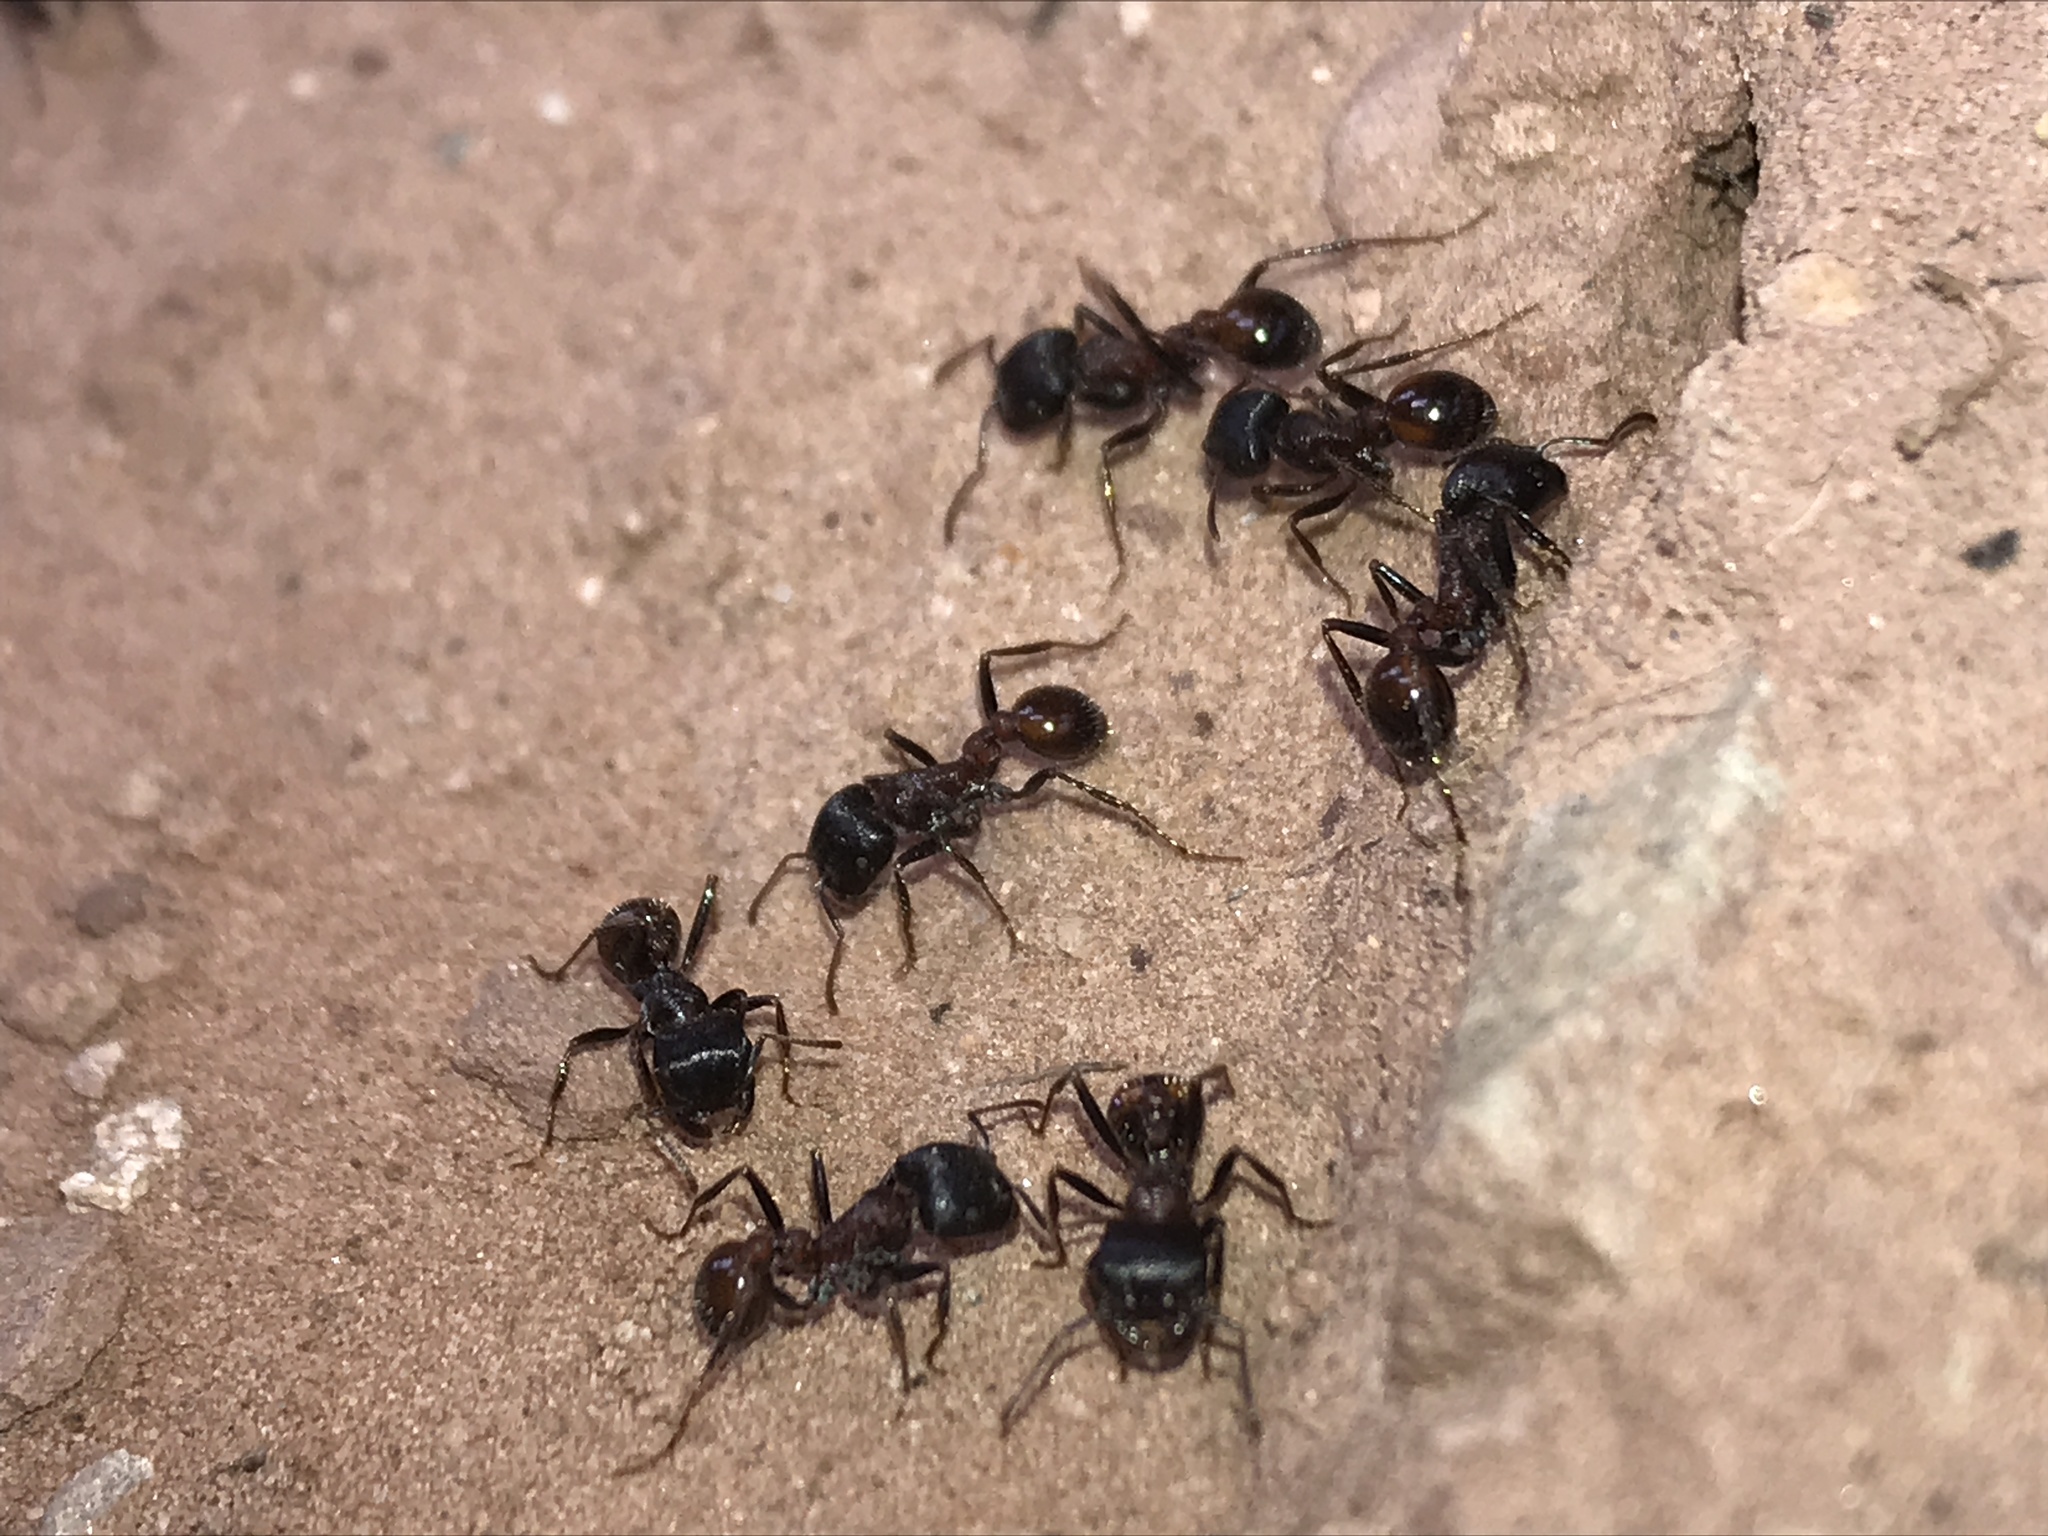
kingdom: Animalia
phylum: Arthropoda
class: Insecta
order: Hymenoptera
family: Formicidae
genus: Pogonomyrmex
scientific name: Pogonomyrmex rugosus
